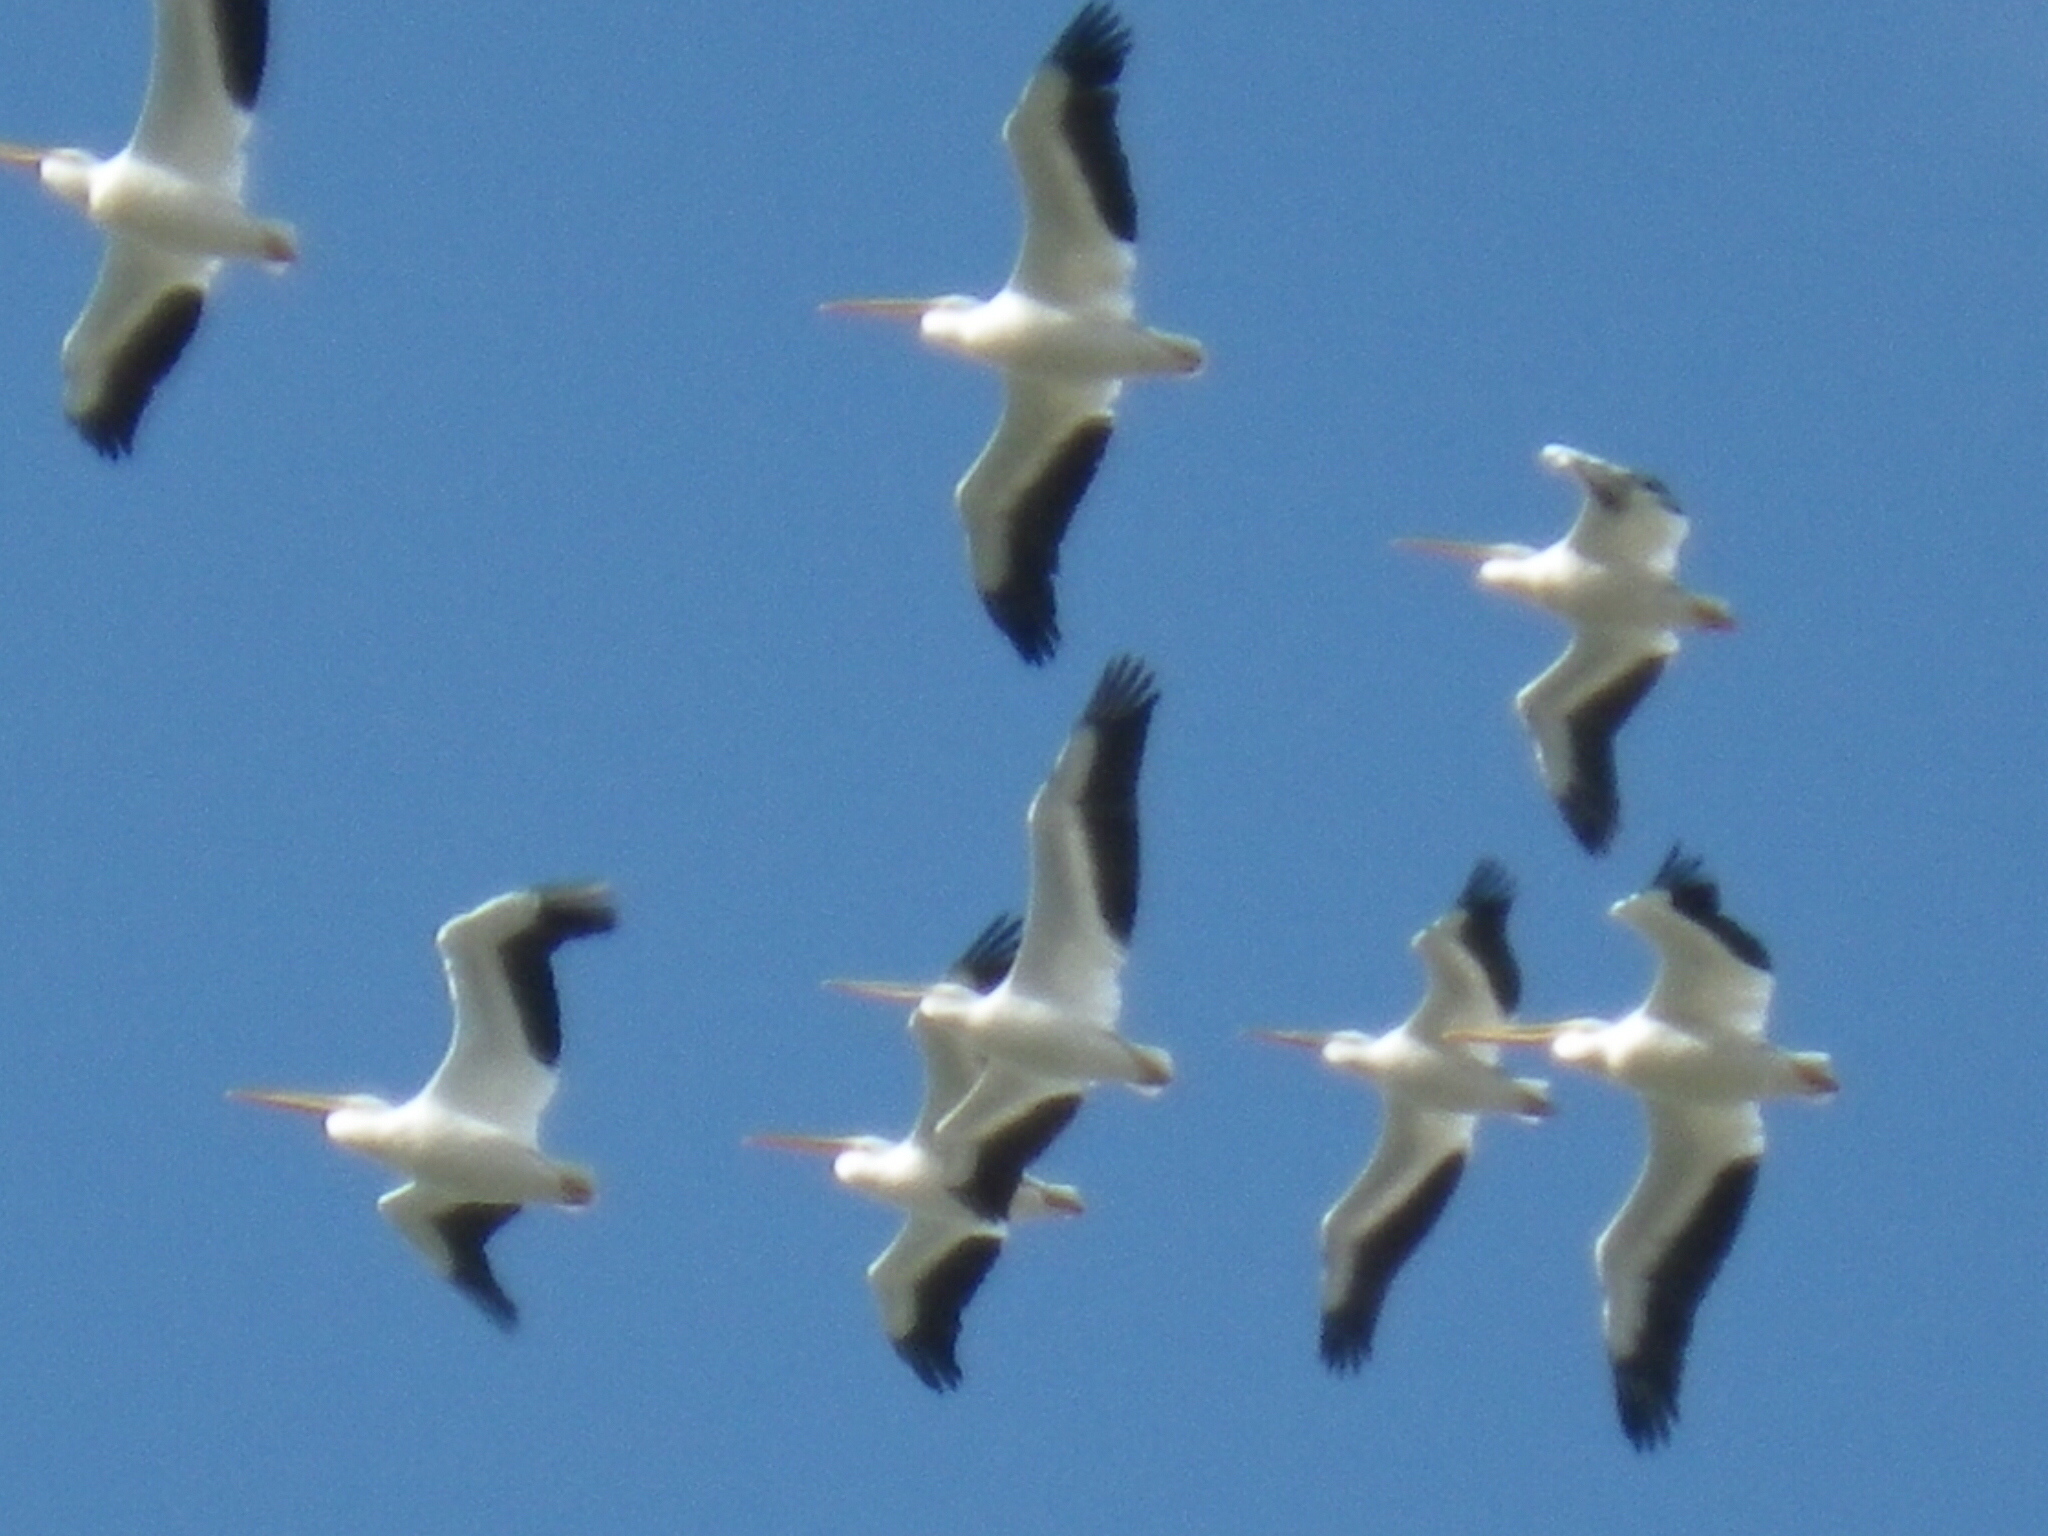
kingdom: Animalia
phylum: Chordata
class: Aves
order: Pelecaniformes
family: Pelecanidae
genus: Pelecanus
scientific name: Pelecanus erythrorhynchos
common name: American white pelican
